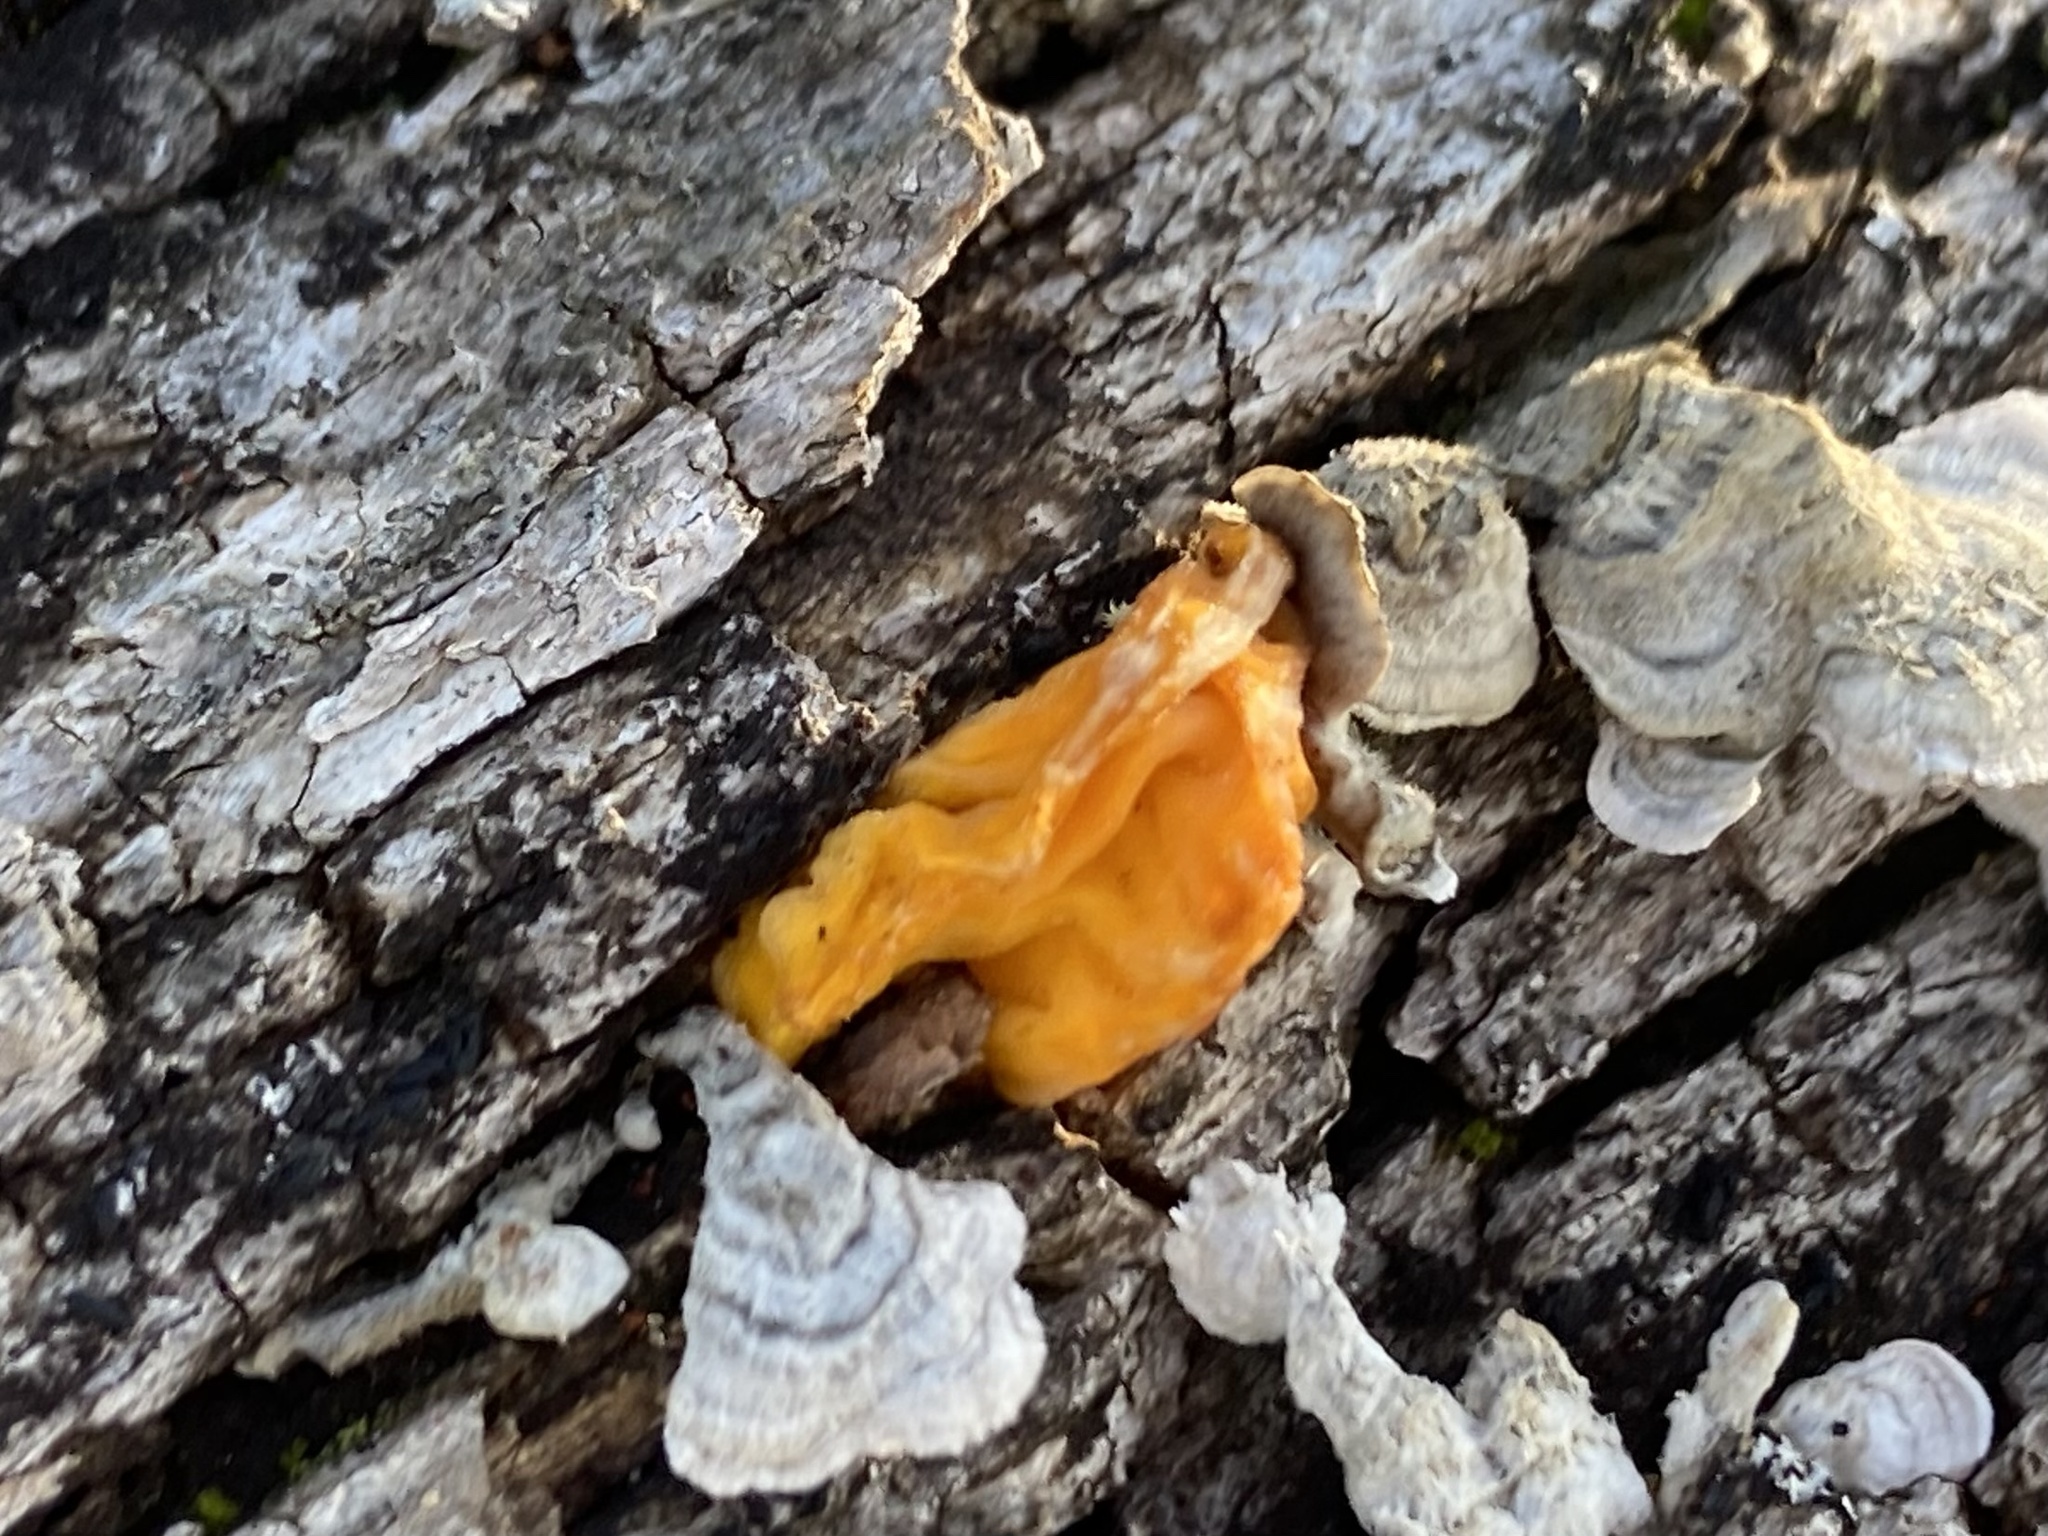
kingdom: Fungi
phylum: Basidiomycota
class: Tremellomycetes
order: Tremellales
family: Naemateliaceae
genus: Naematelia
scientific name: Naematelia aurantia
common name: Golden ear
